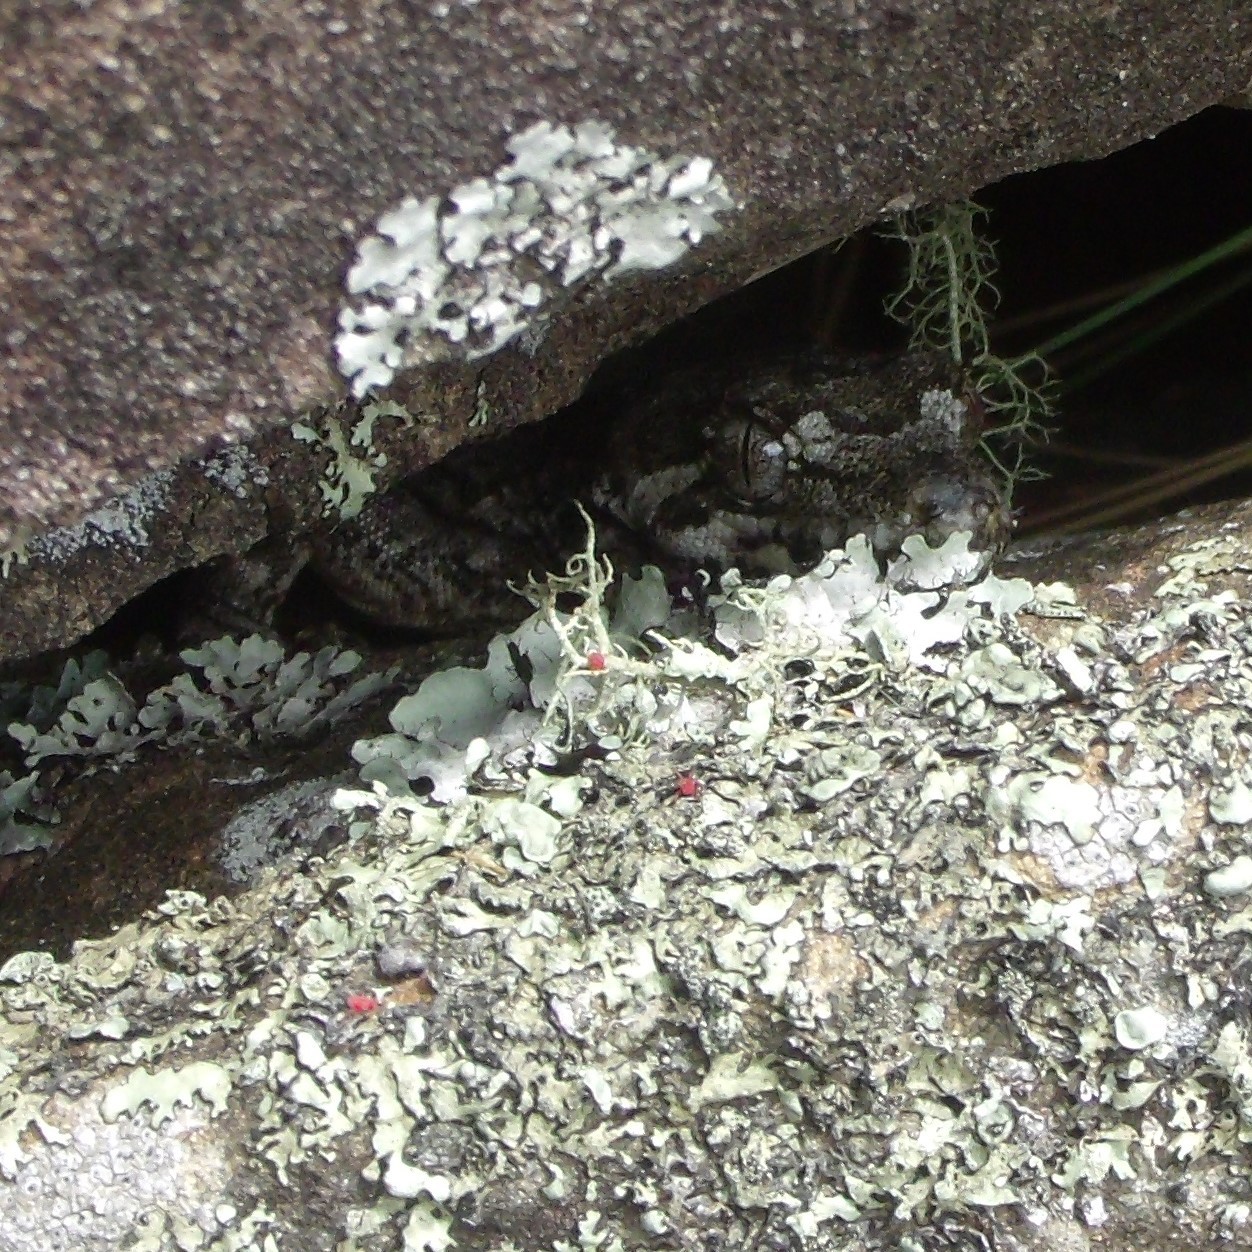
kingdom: Animalia
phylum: Chordata
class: Squamata
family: Diplodactylidae
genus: Mokopirirakau
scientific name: Mokopirirakau
